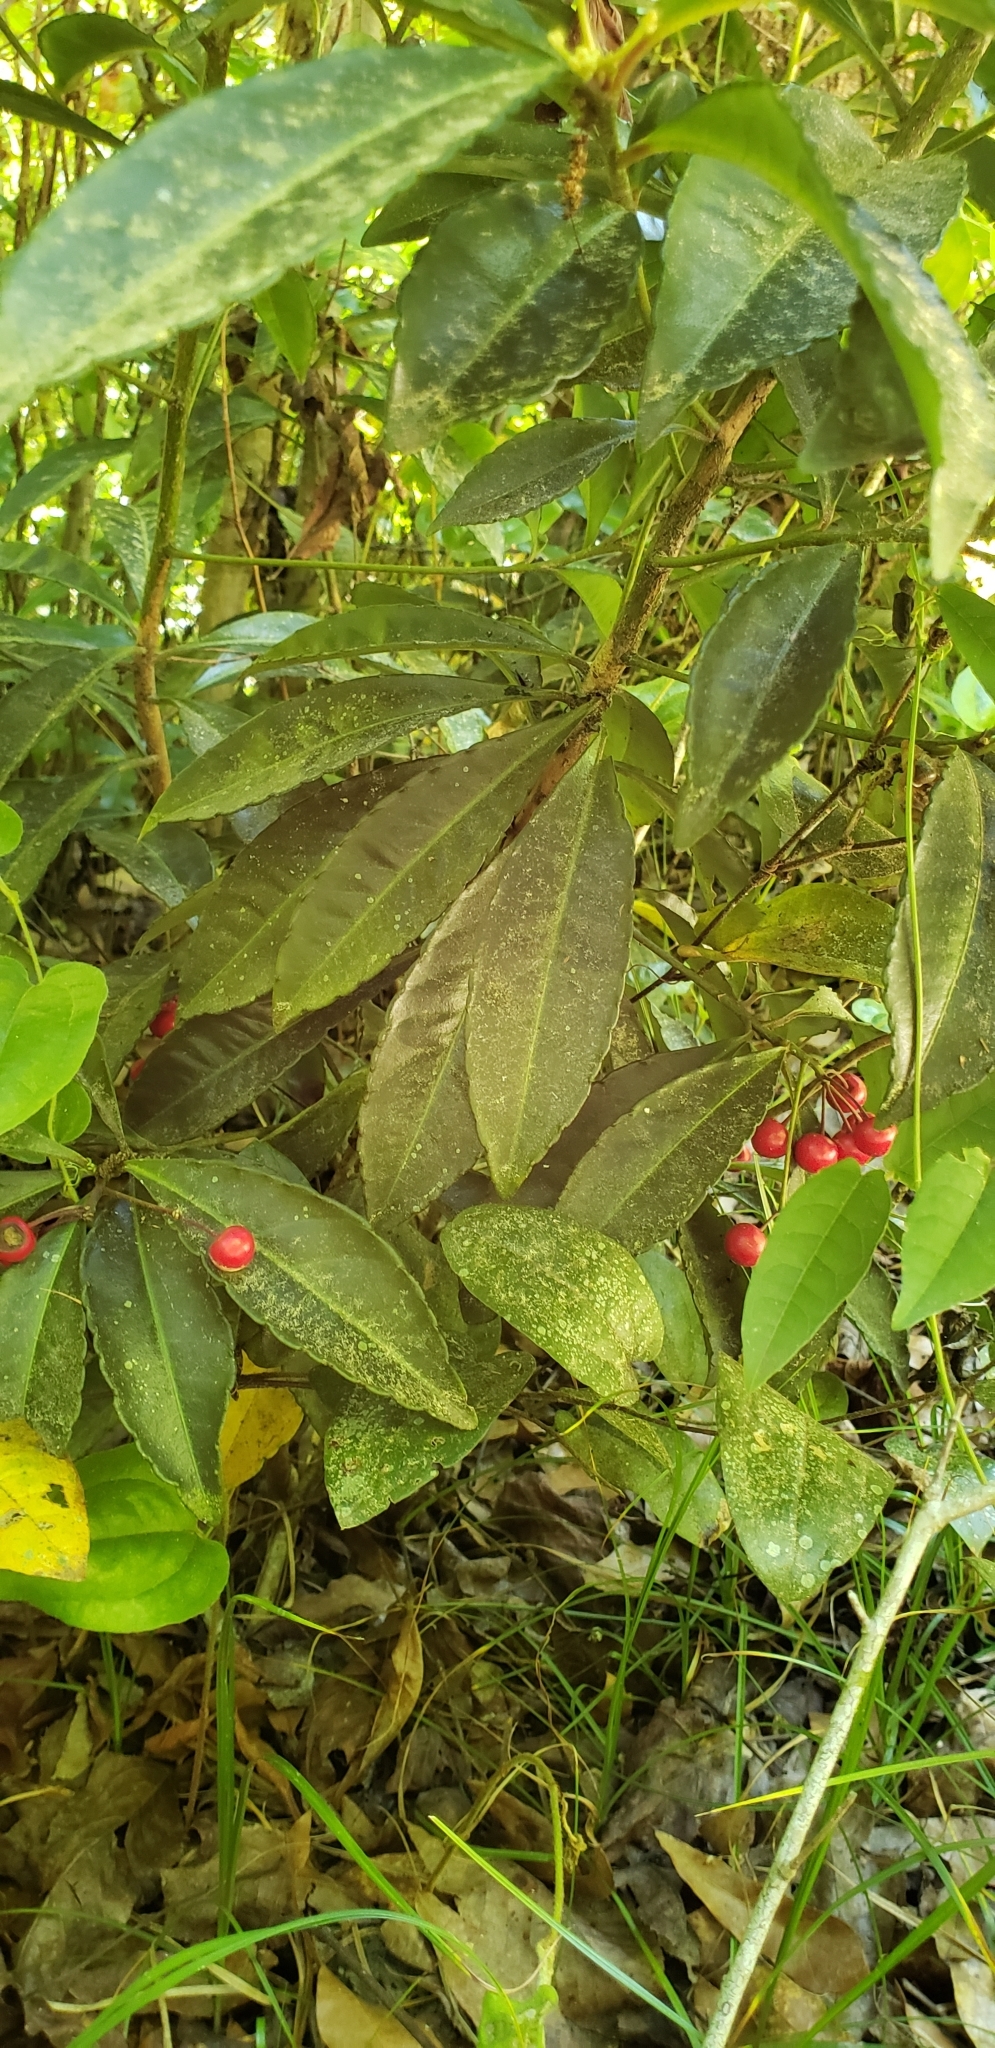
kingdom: Plantae
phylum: Tracheophyta
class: Magnoliopsida
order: Ericales
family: Primulaceae
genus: Ardisia
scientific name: Ardisia crenata
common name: Hen's eyes
